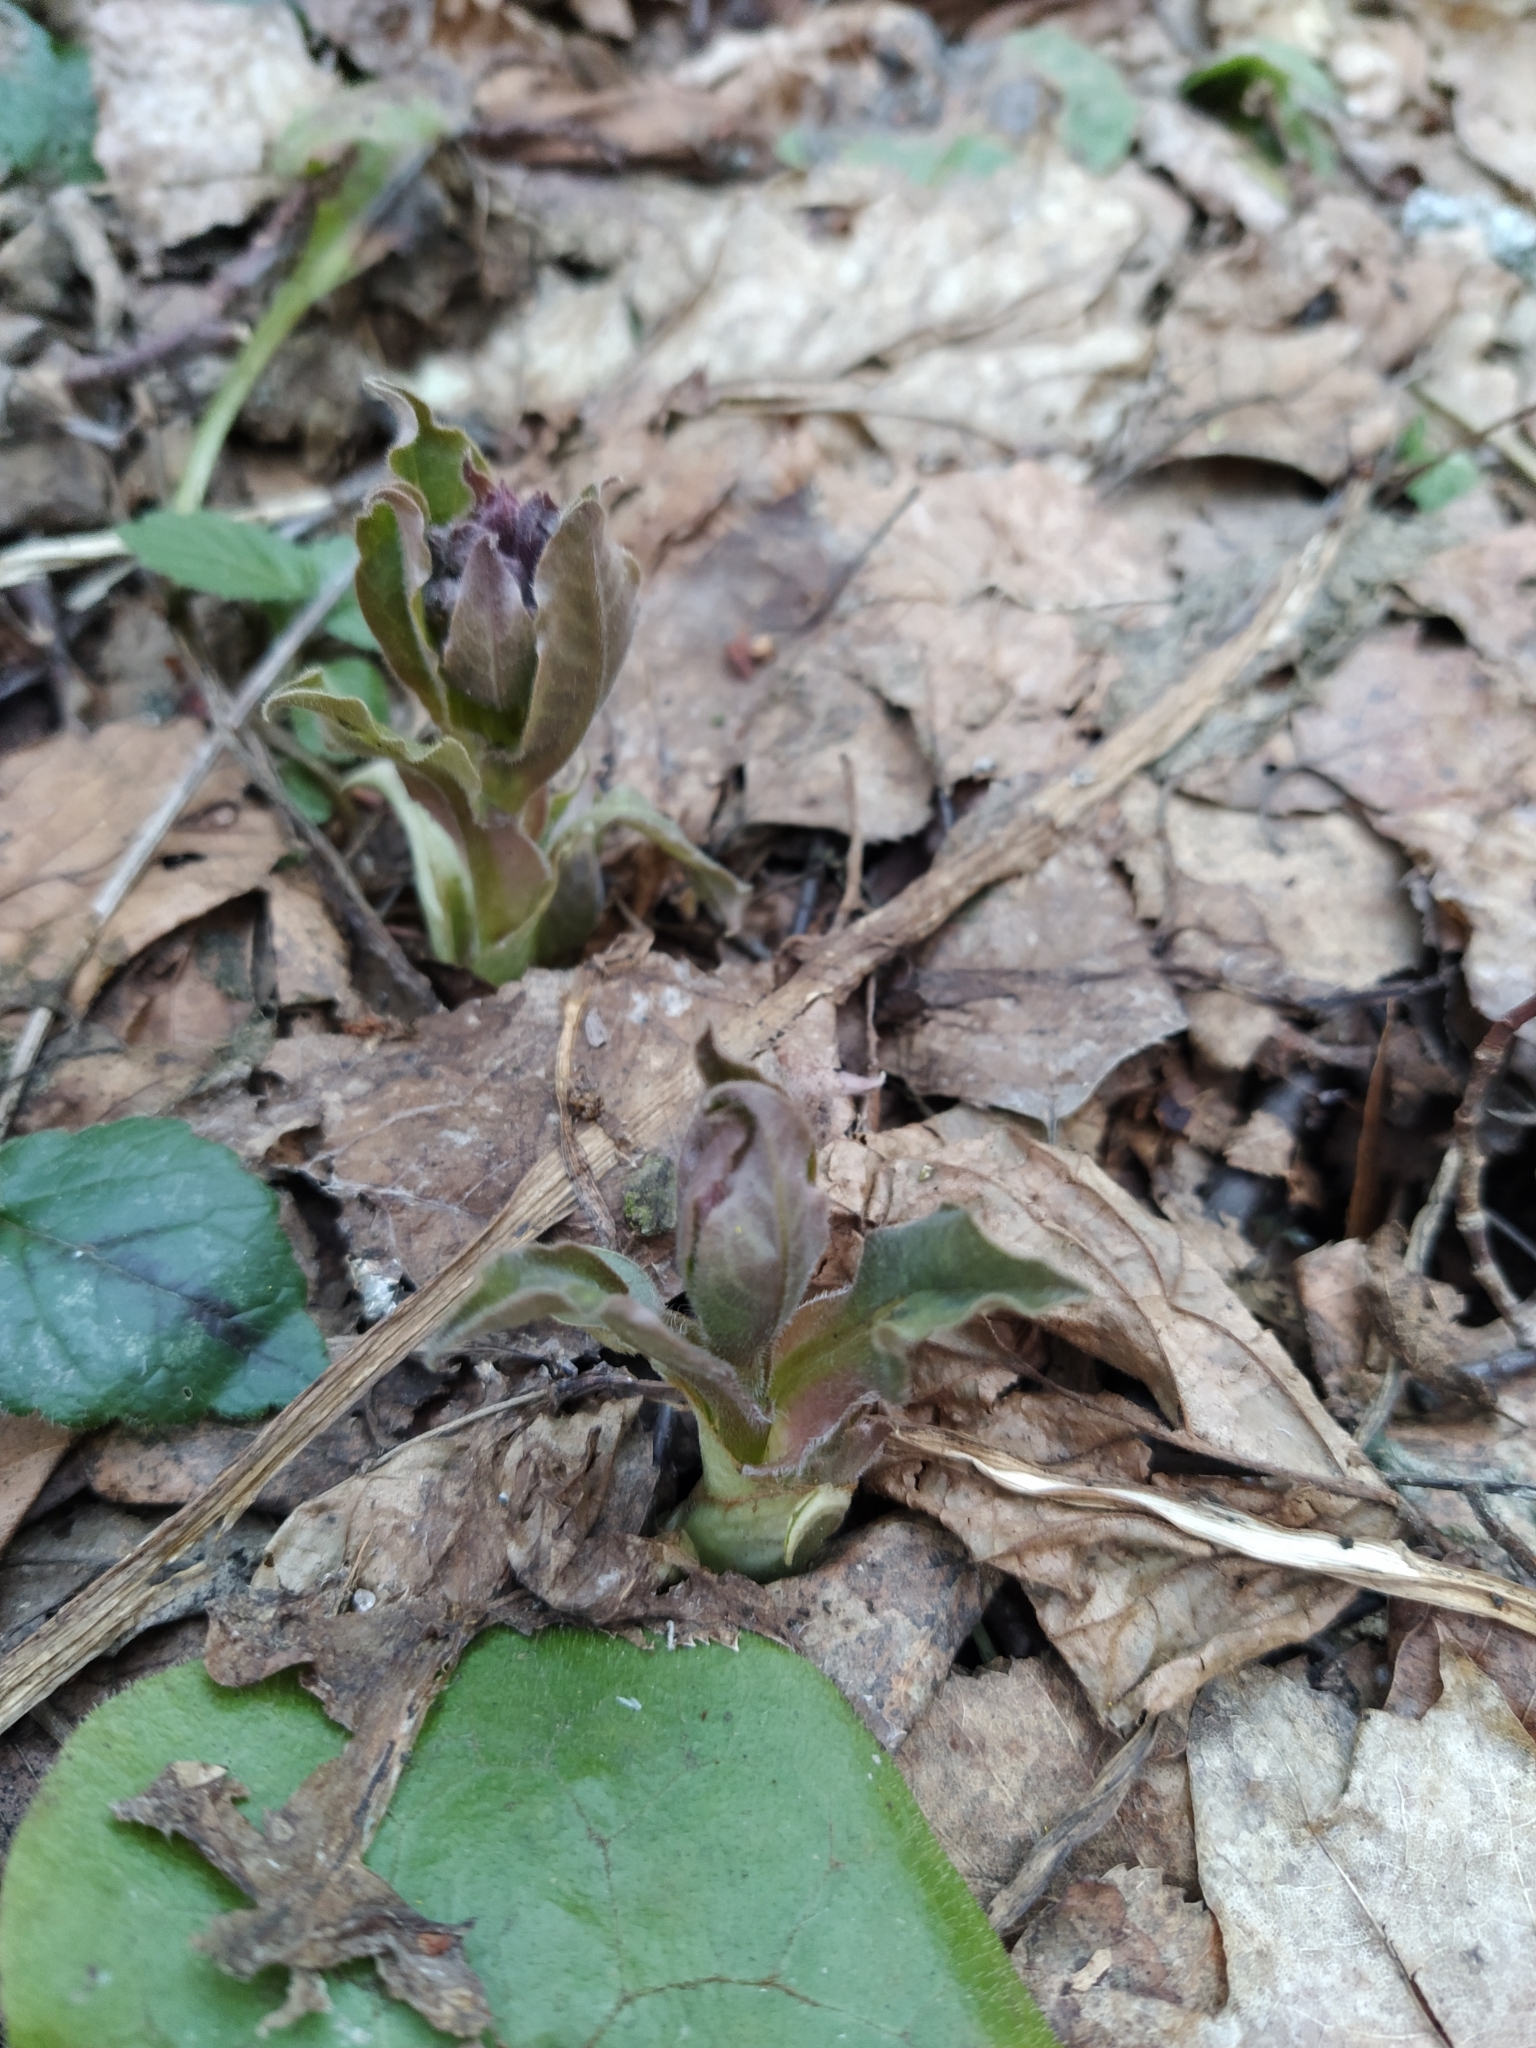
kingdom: Plantae
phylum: Tracheophyta
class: Magnoliopsida
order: Boraginales
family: Boraginaceae
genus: Pulmonaria
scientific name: Pulmonaria obscura
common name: Suffolk lungwort
